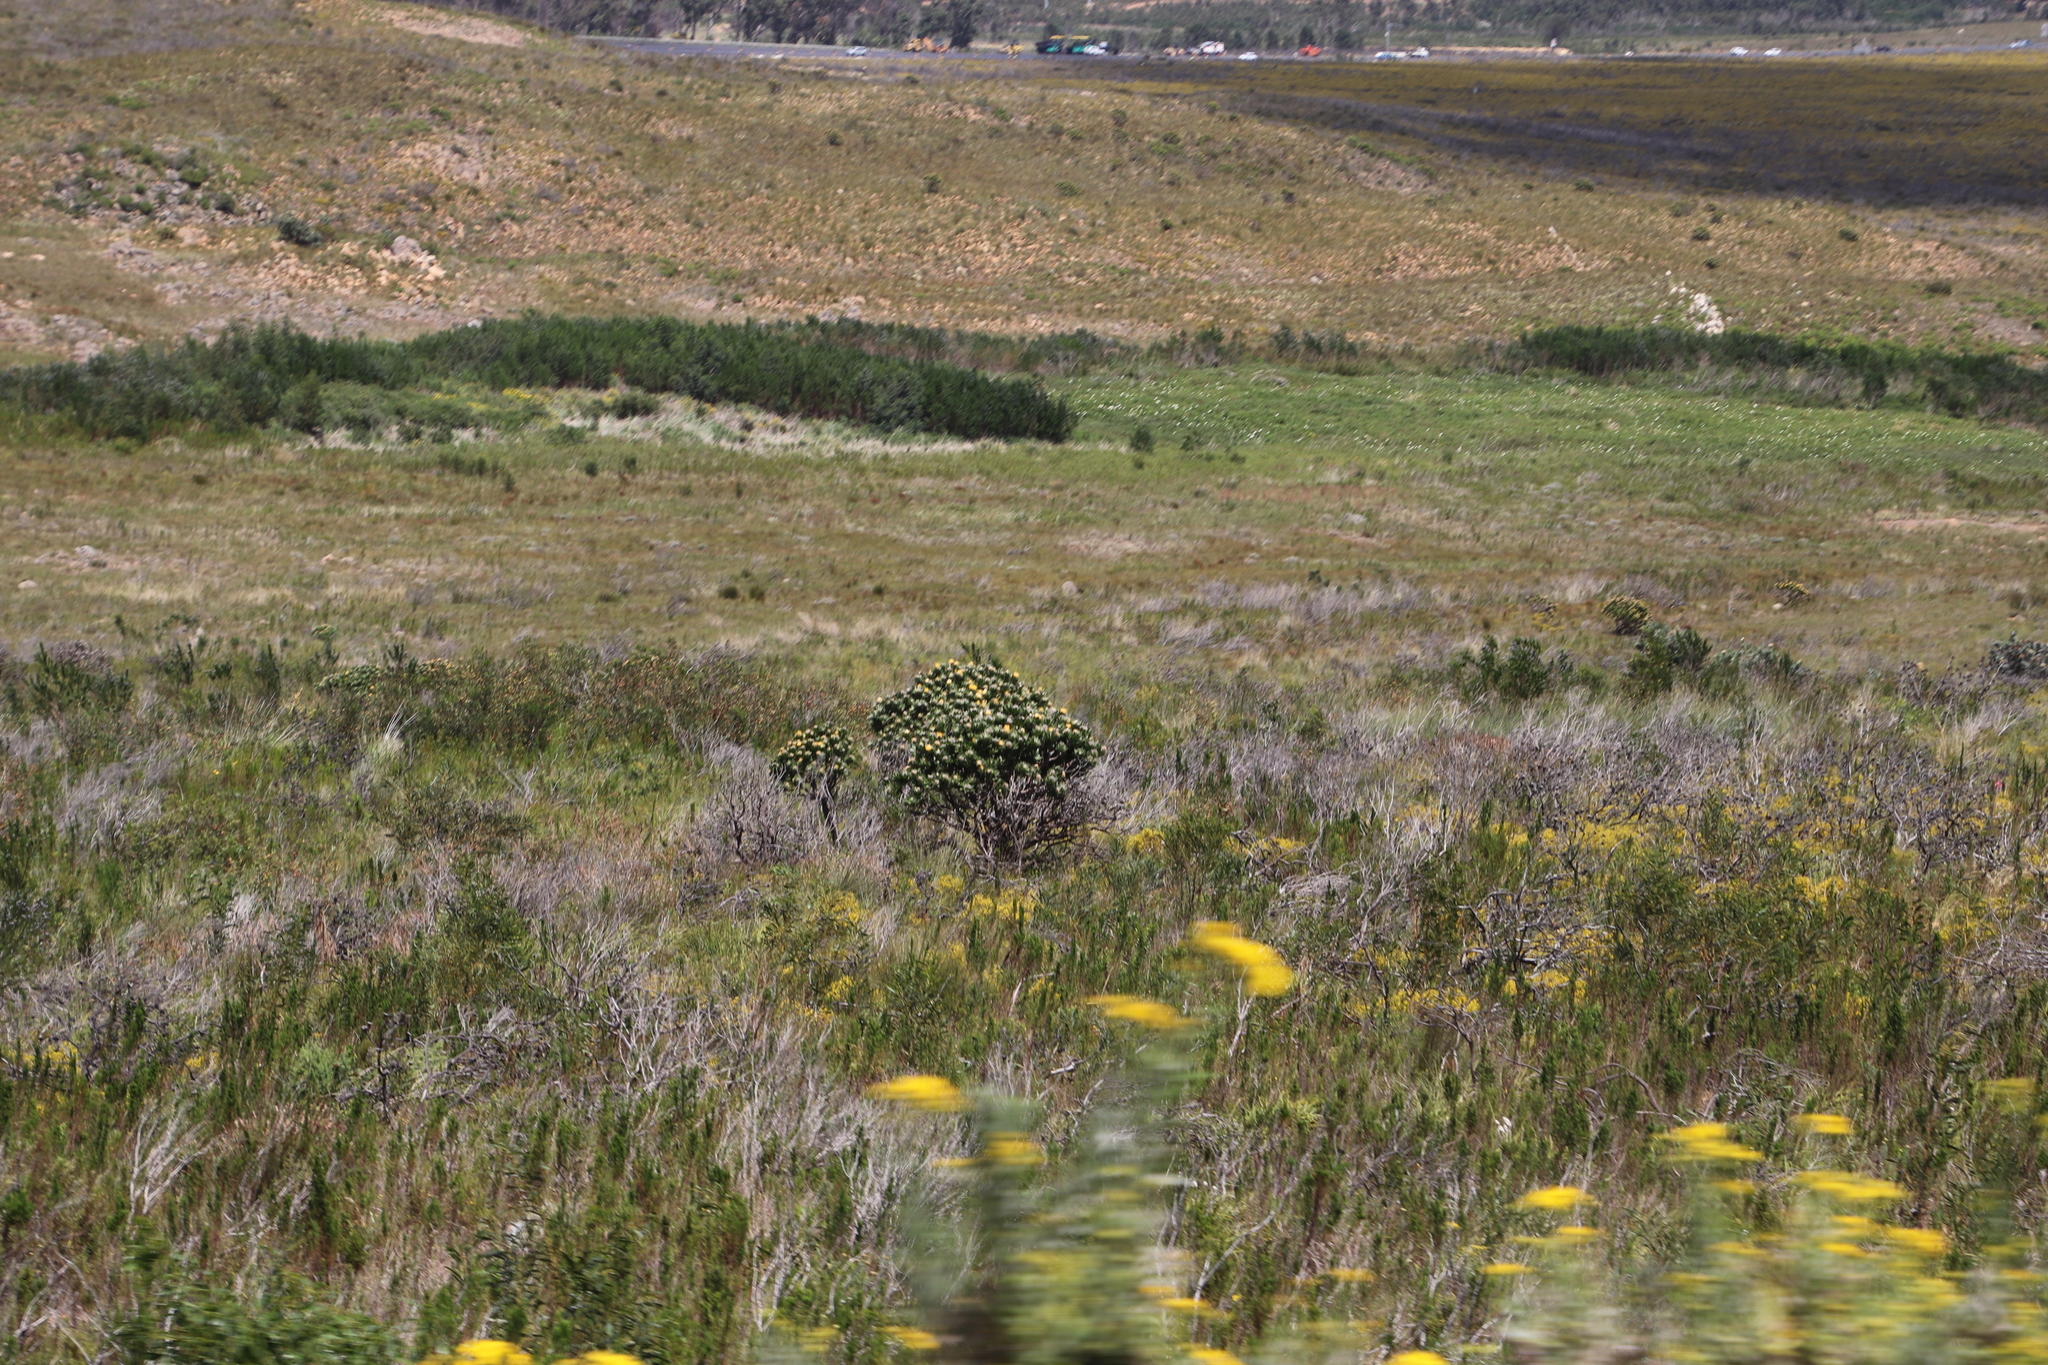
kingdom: Plantae
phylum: Tracheophyta
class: Magnoliopsida
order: Proteales
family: Proteaceae
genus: Leucospermum
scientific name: Leucospermum conocarpodendron
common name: Tree pincushion
